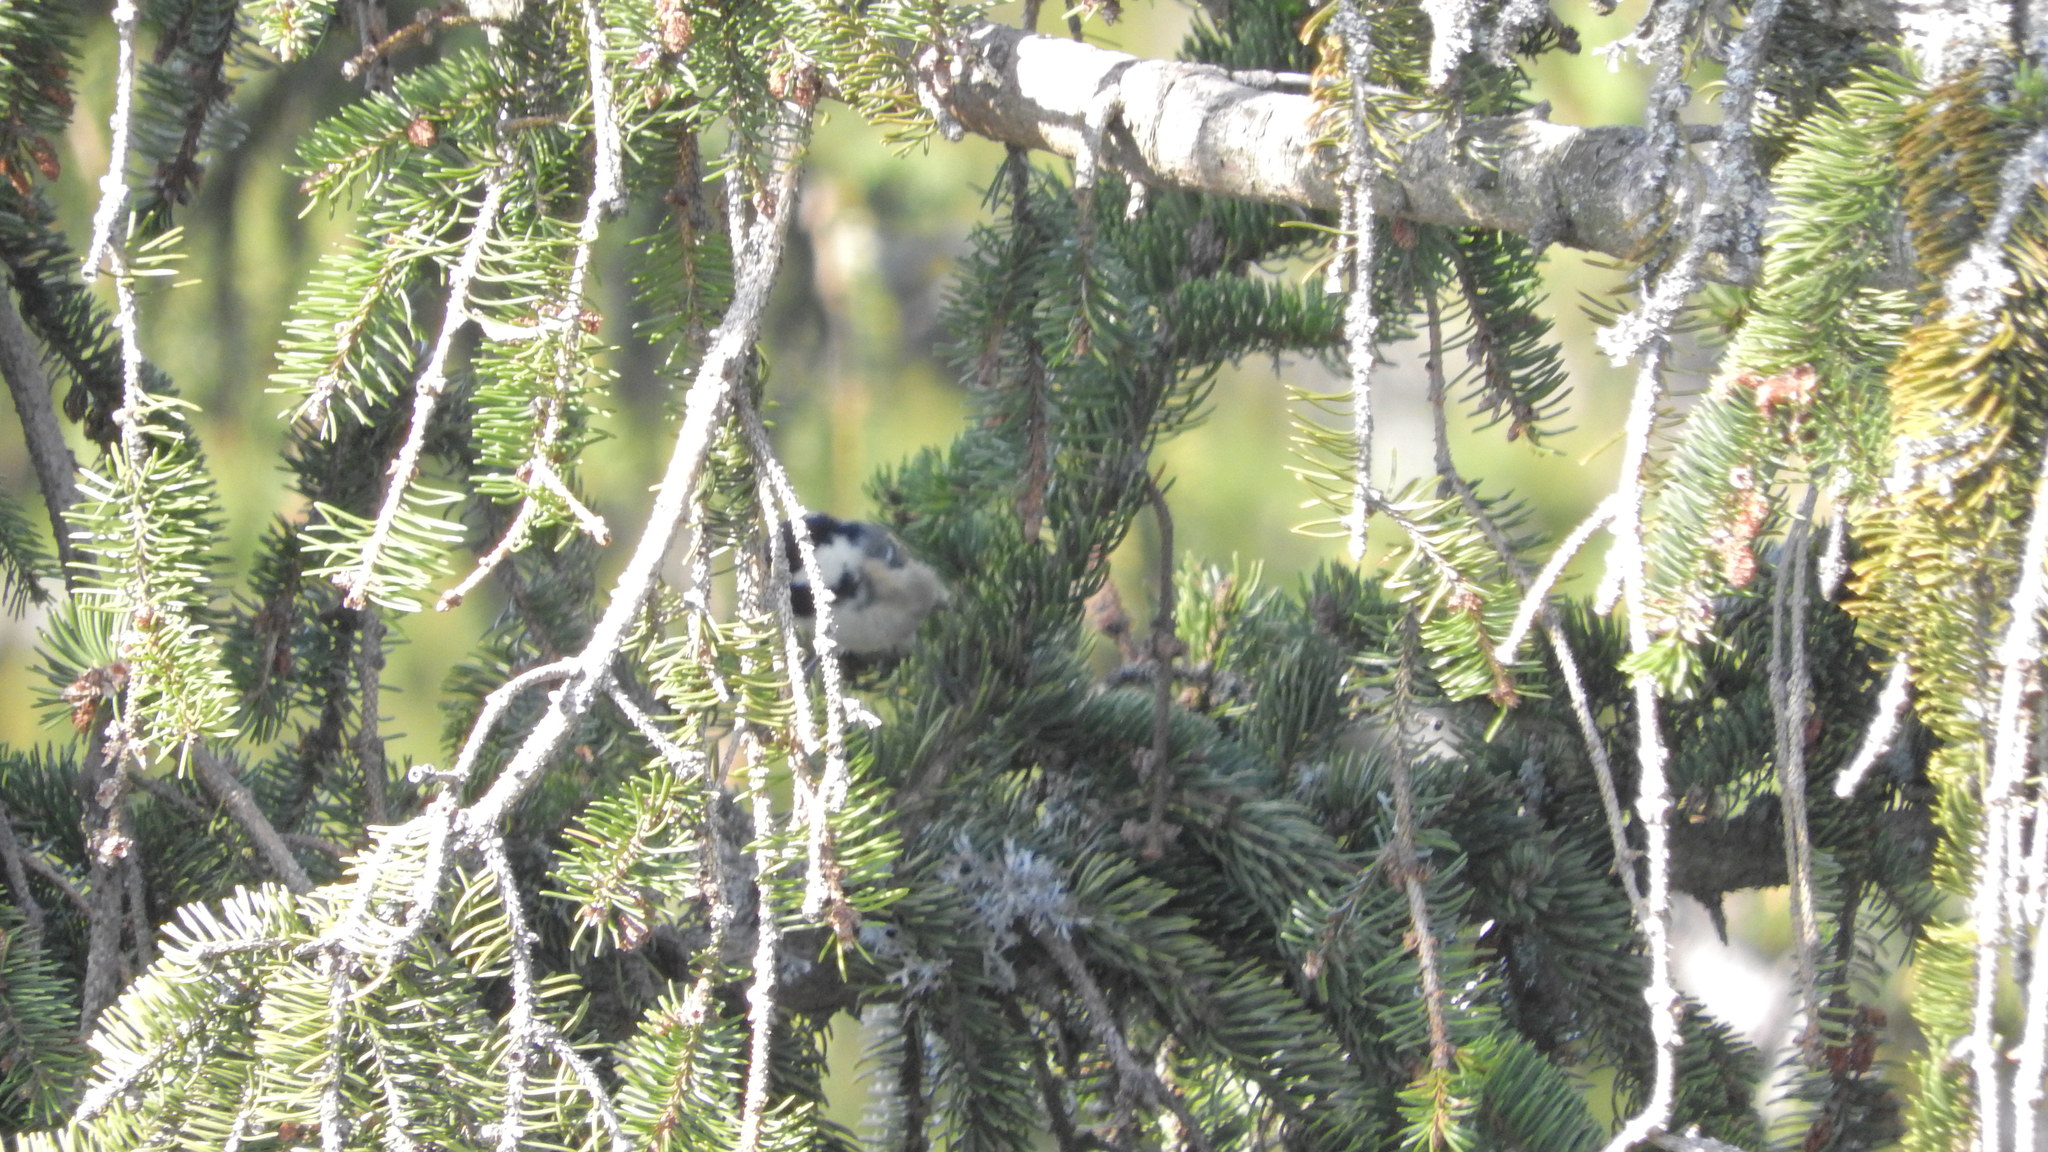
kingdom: Animalia
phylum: Chordata
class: Aves
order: Passeriformes
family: Paridae
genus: Periparus
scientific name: Periparus ater
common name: Coal tit
